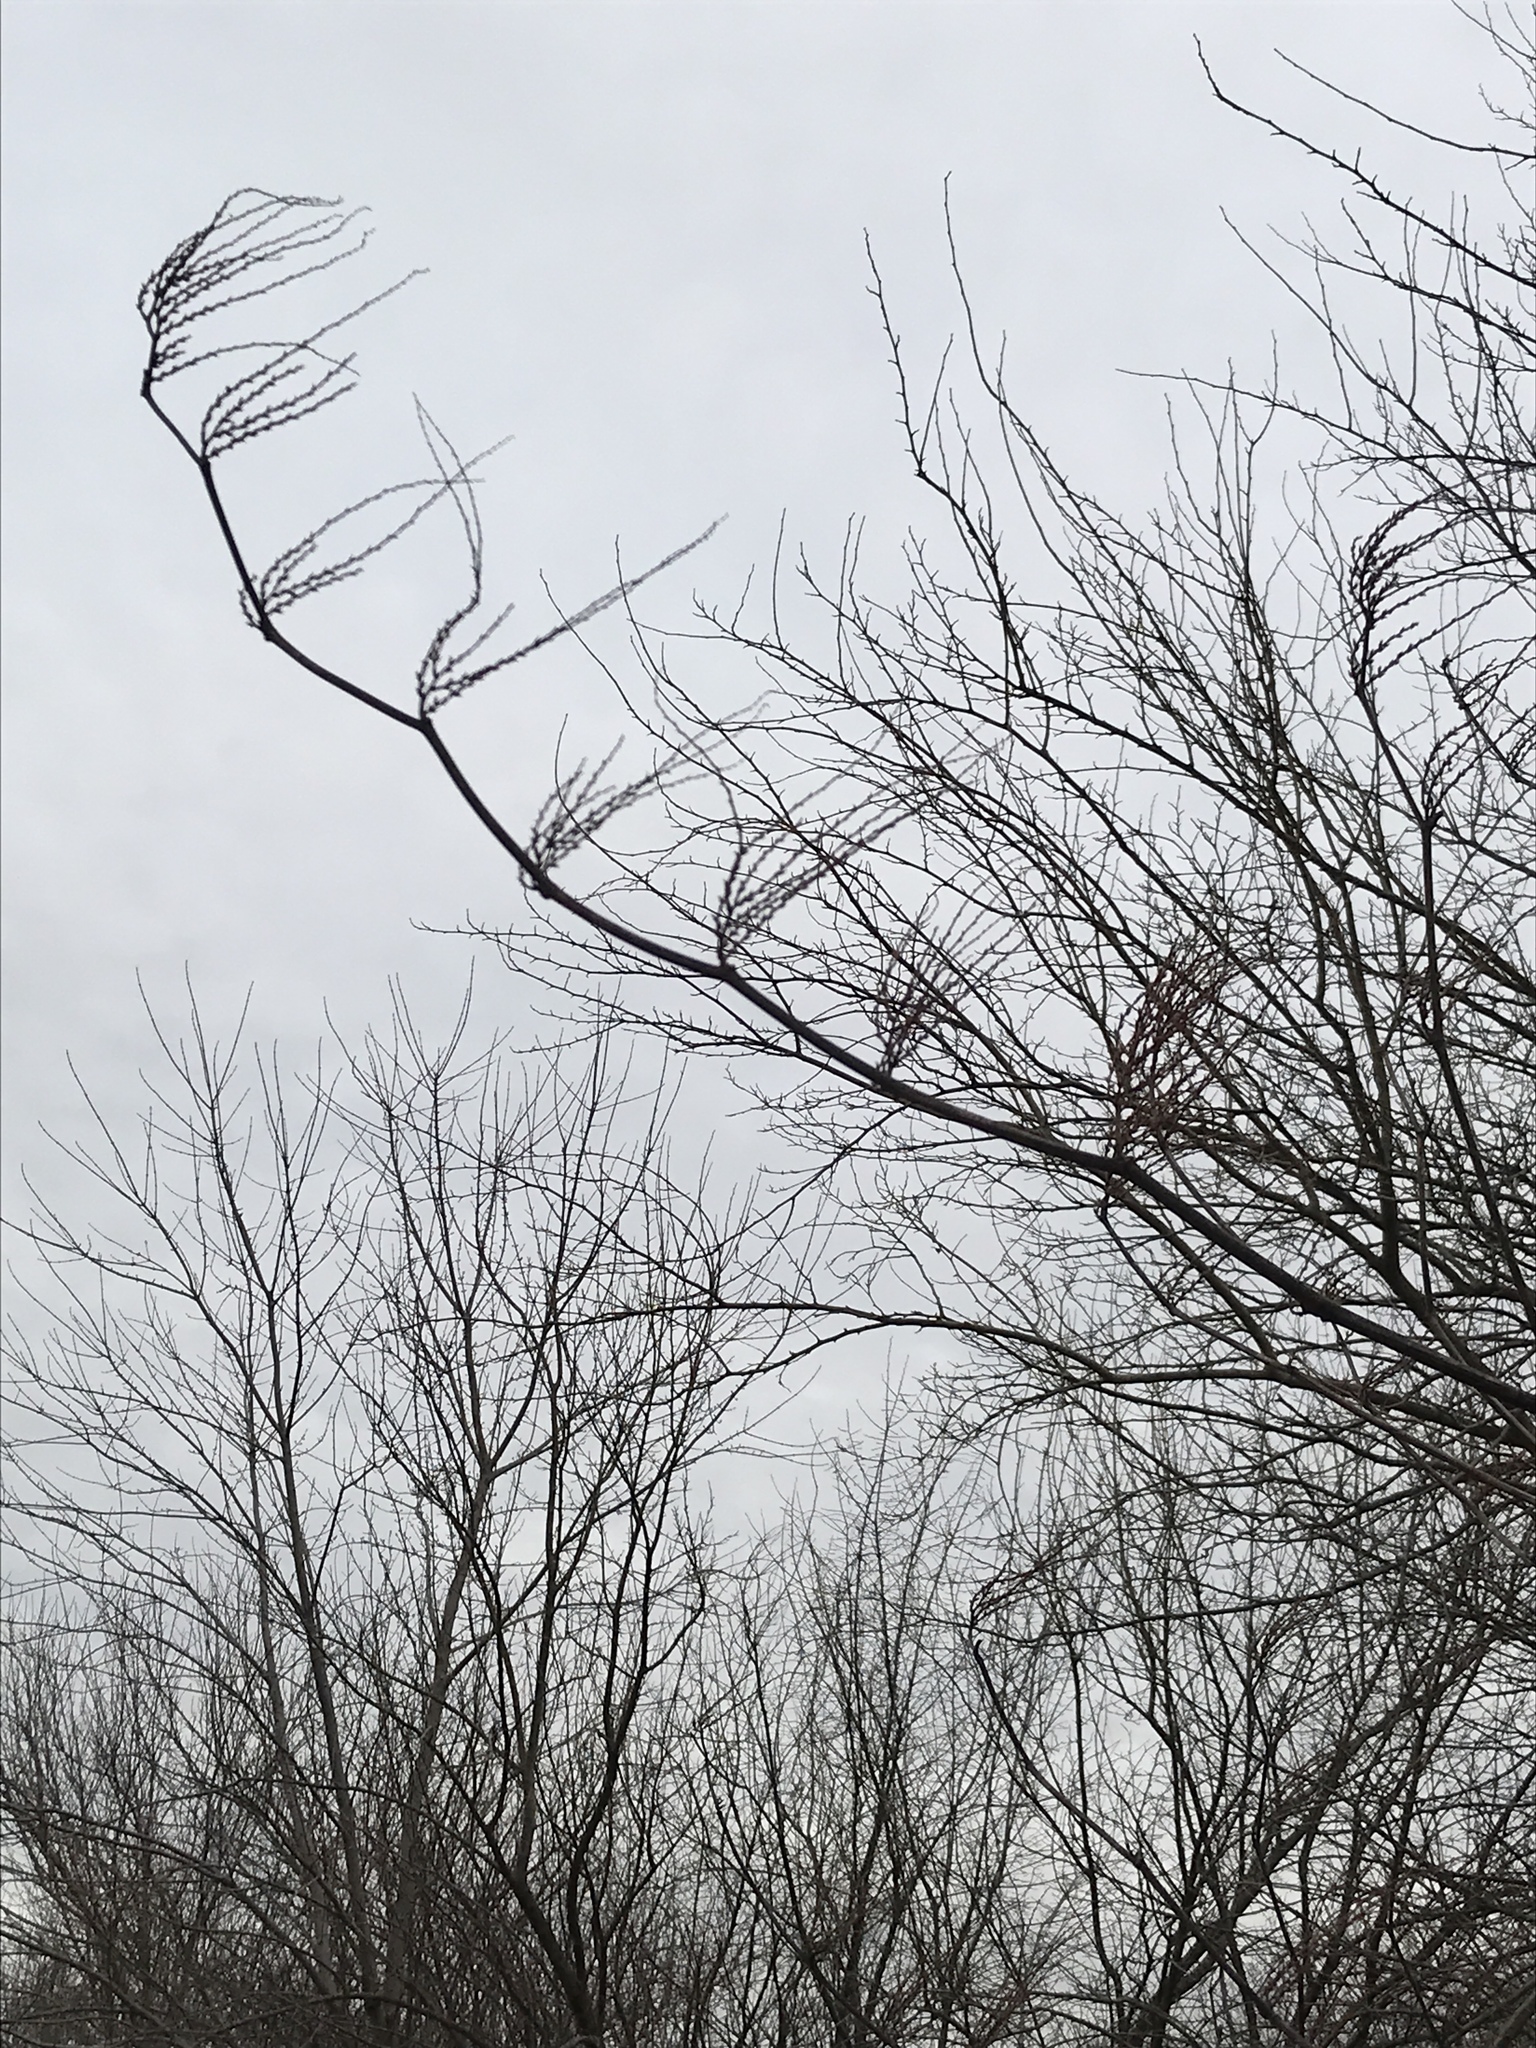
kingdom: Plantae
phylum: Tracheophyta
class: Magnoliopsida
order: Caryophyllales
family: Polygonaceae
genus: Reynoutria
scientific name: Reynoutria japonica
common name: Japanese knotweed
